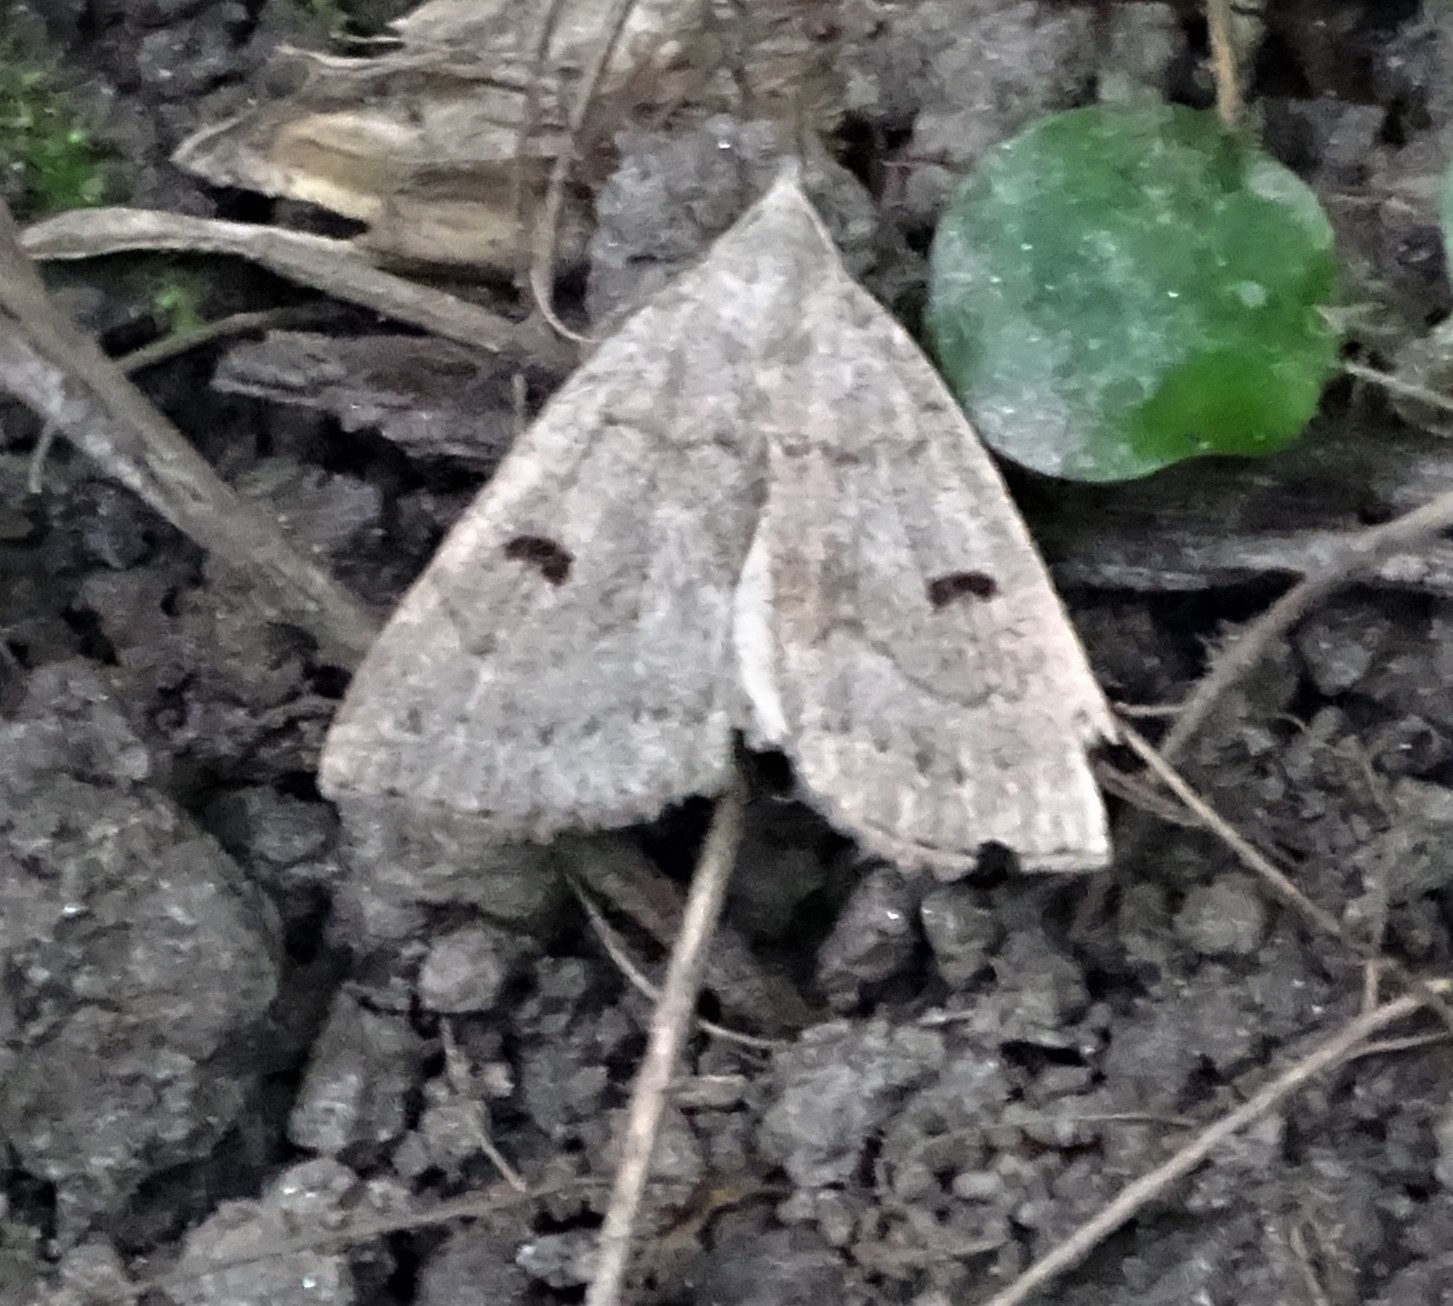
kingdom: Animalia
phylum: Arthropoda
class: Insecta
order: Lepidoptera
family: Erebidae
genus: Macrochilo
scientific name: Macrochilo morbidalis
